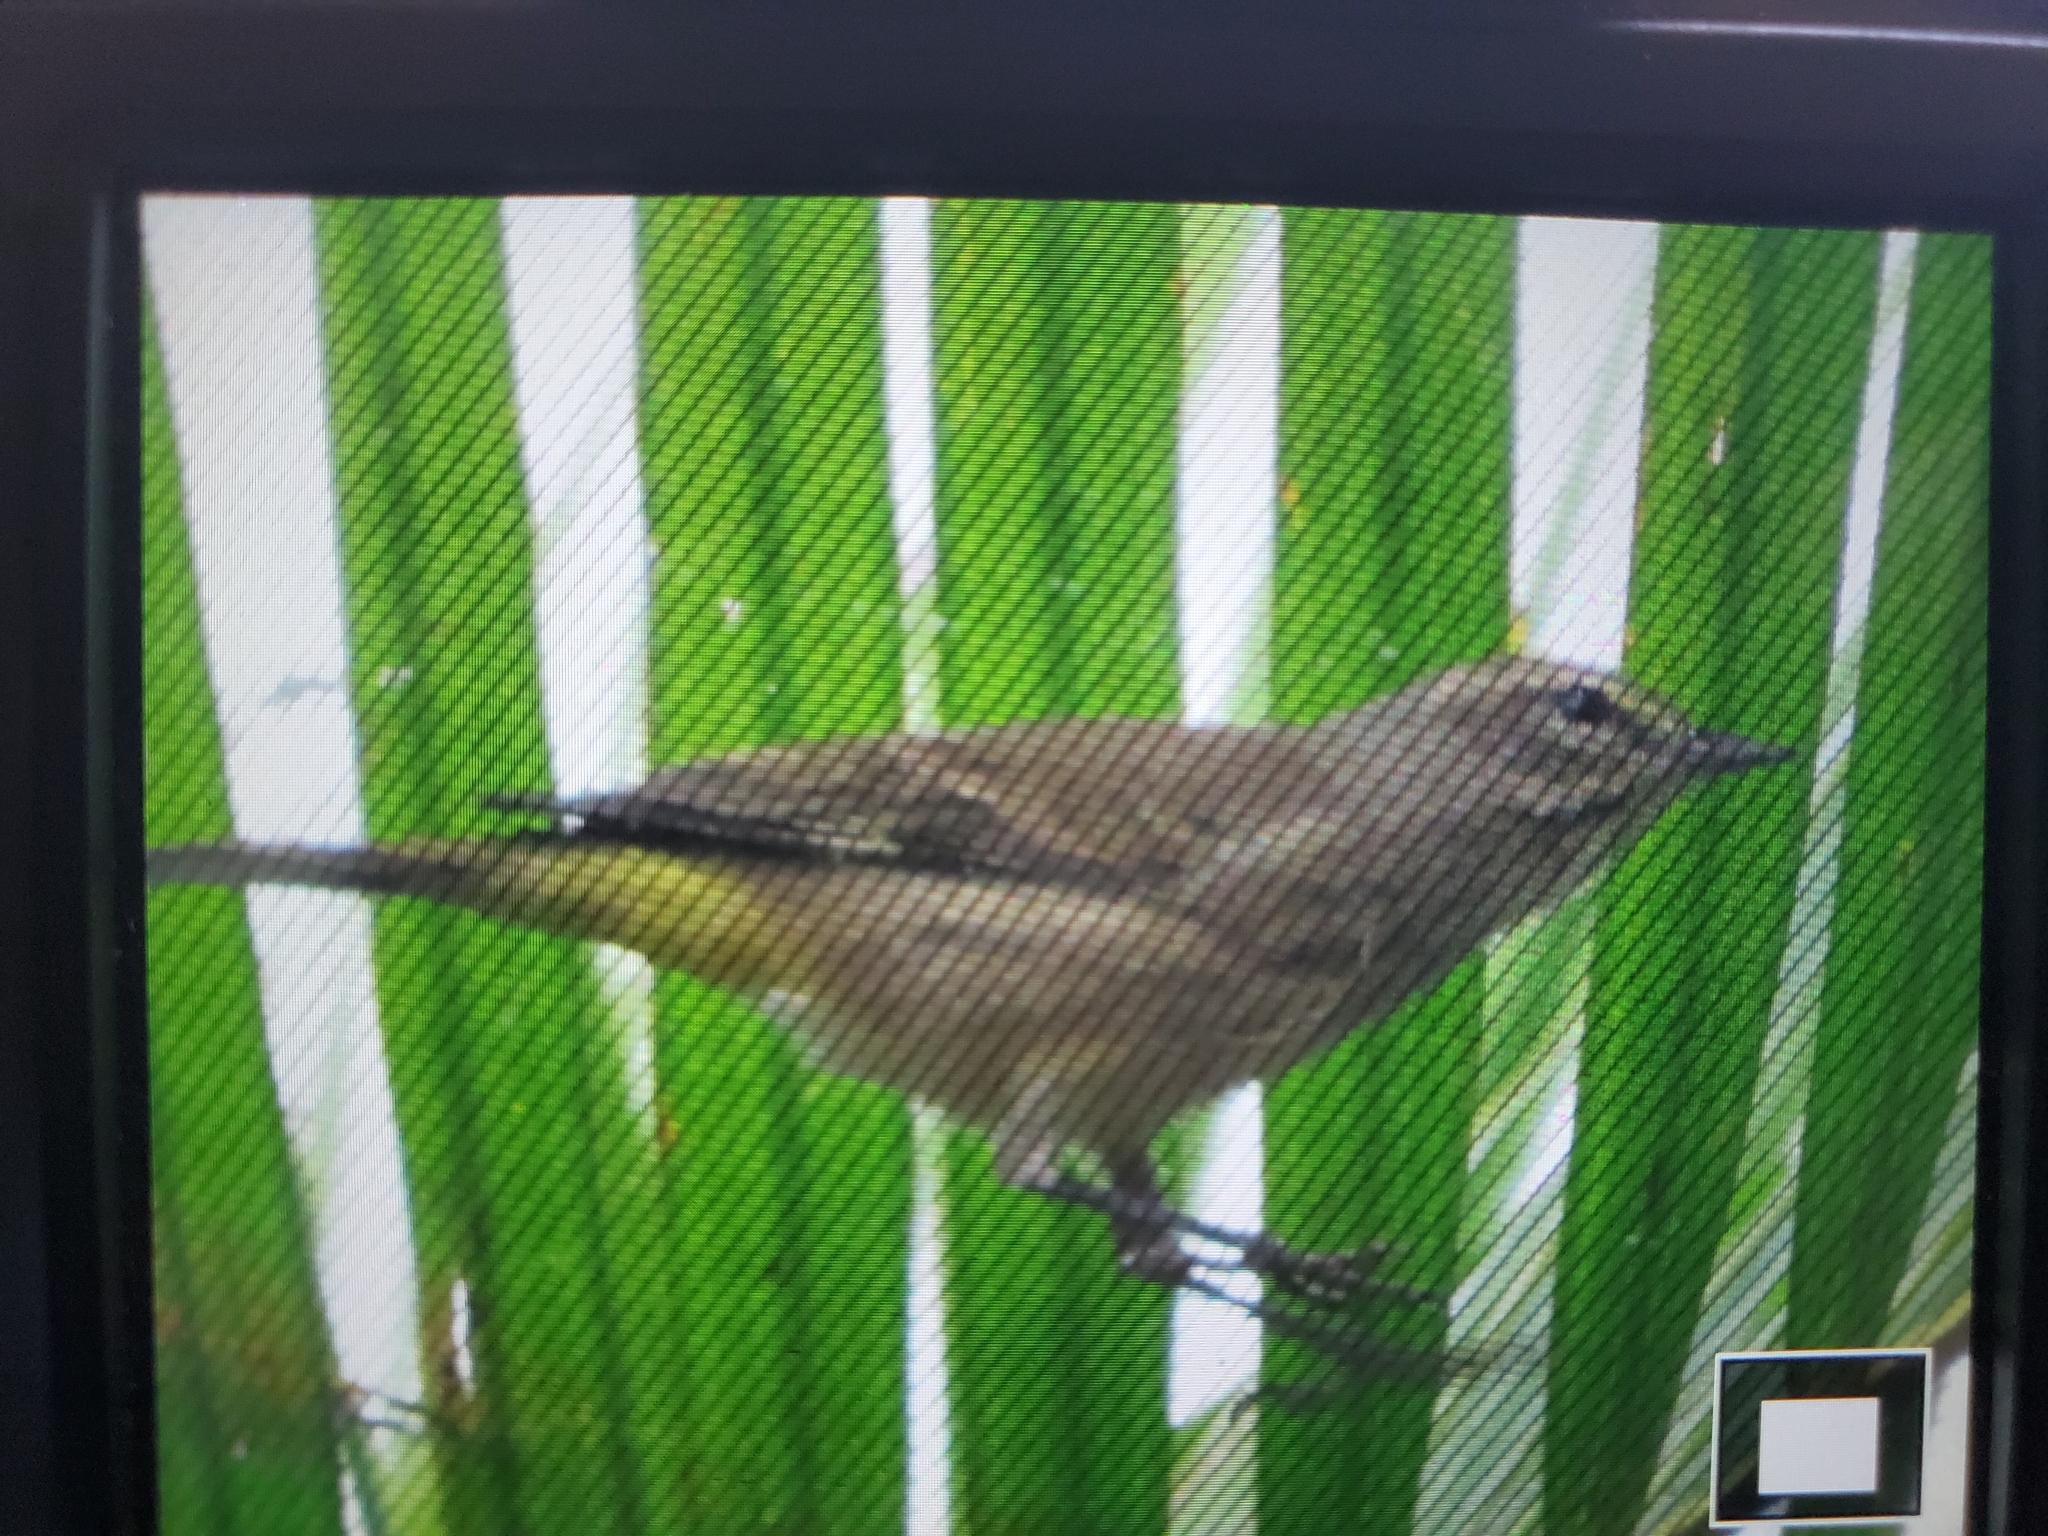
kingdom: Animalia
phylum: Chordata
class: Aves
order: Passeriformes
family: Parulidae
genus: Setophaga
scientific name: Setophaga palmarum
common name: Palm warbler
